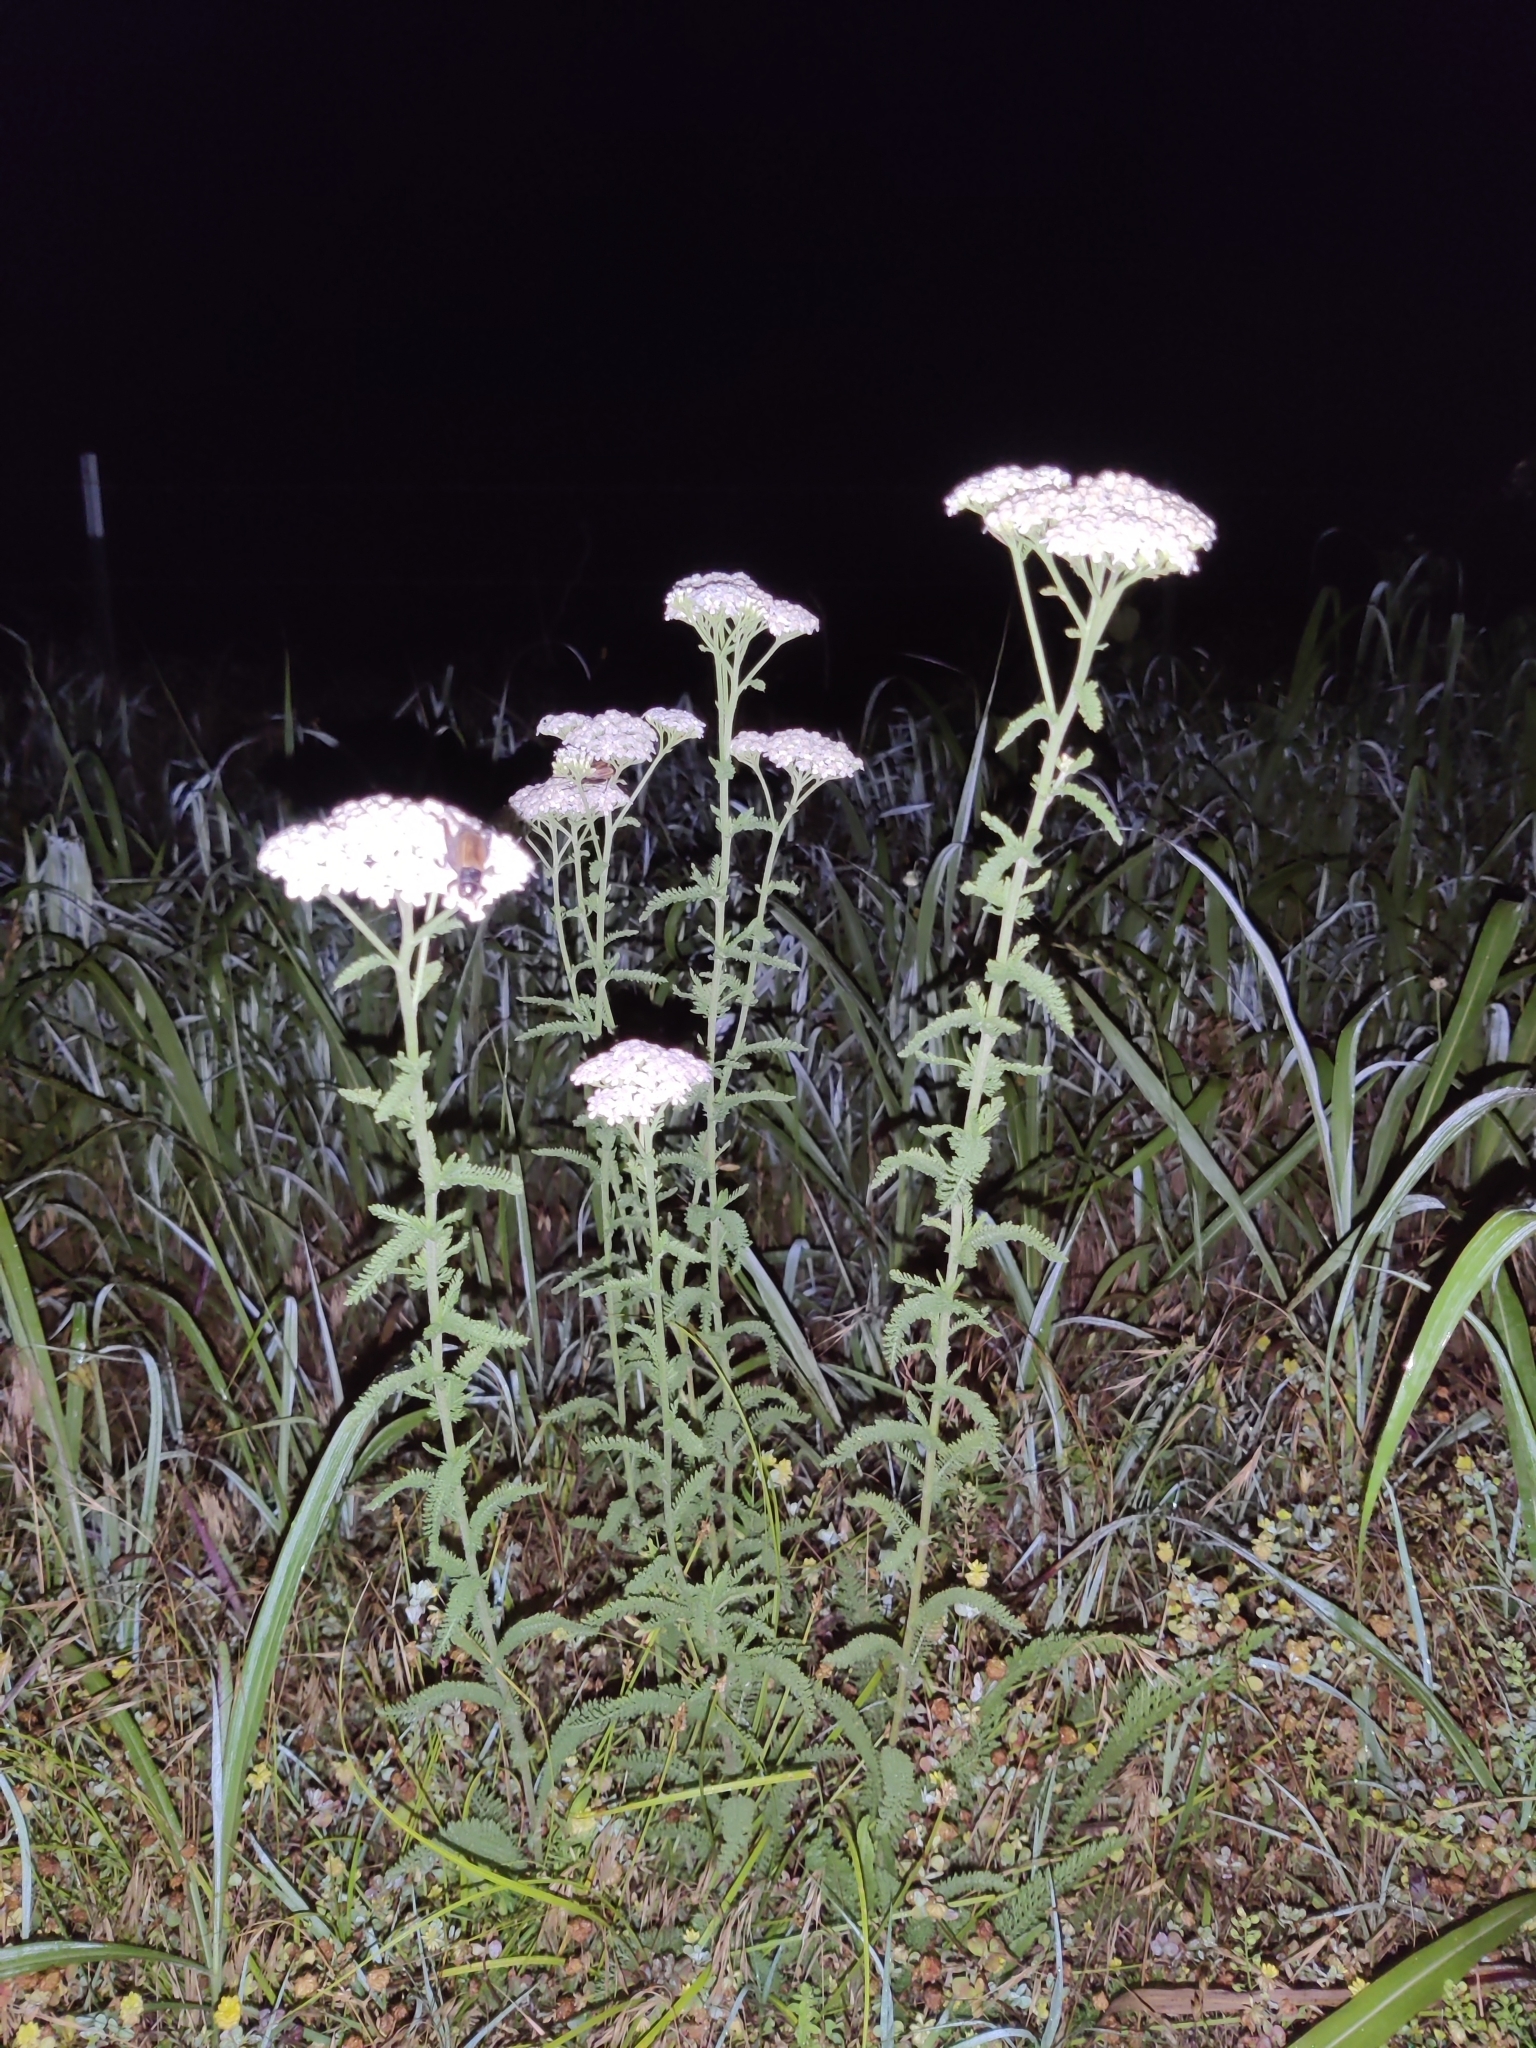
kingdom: Plantae
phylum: Tracheophyta
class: Magnoliopsida
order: Asterales
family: Asteraceae
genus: Achillea
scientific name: Achillea millefolium
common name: Yarrow
